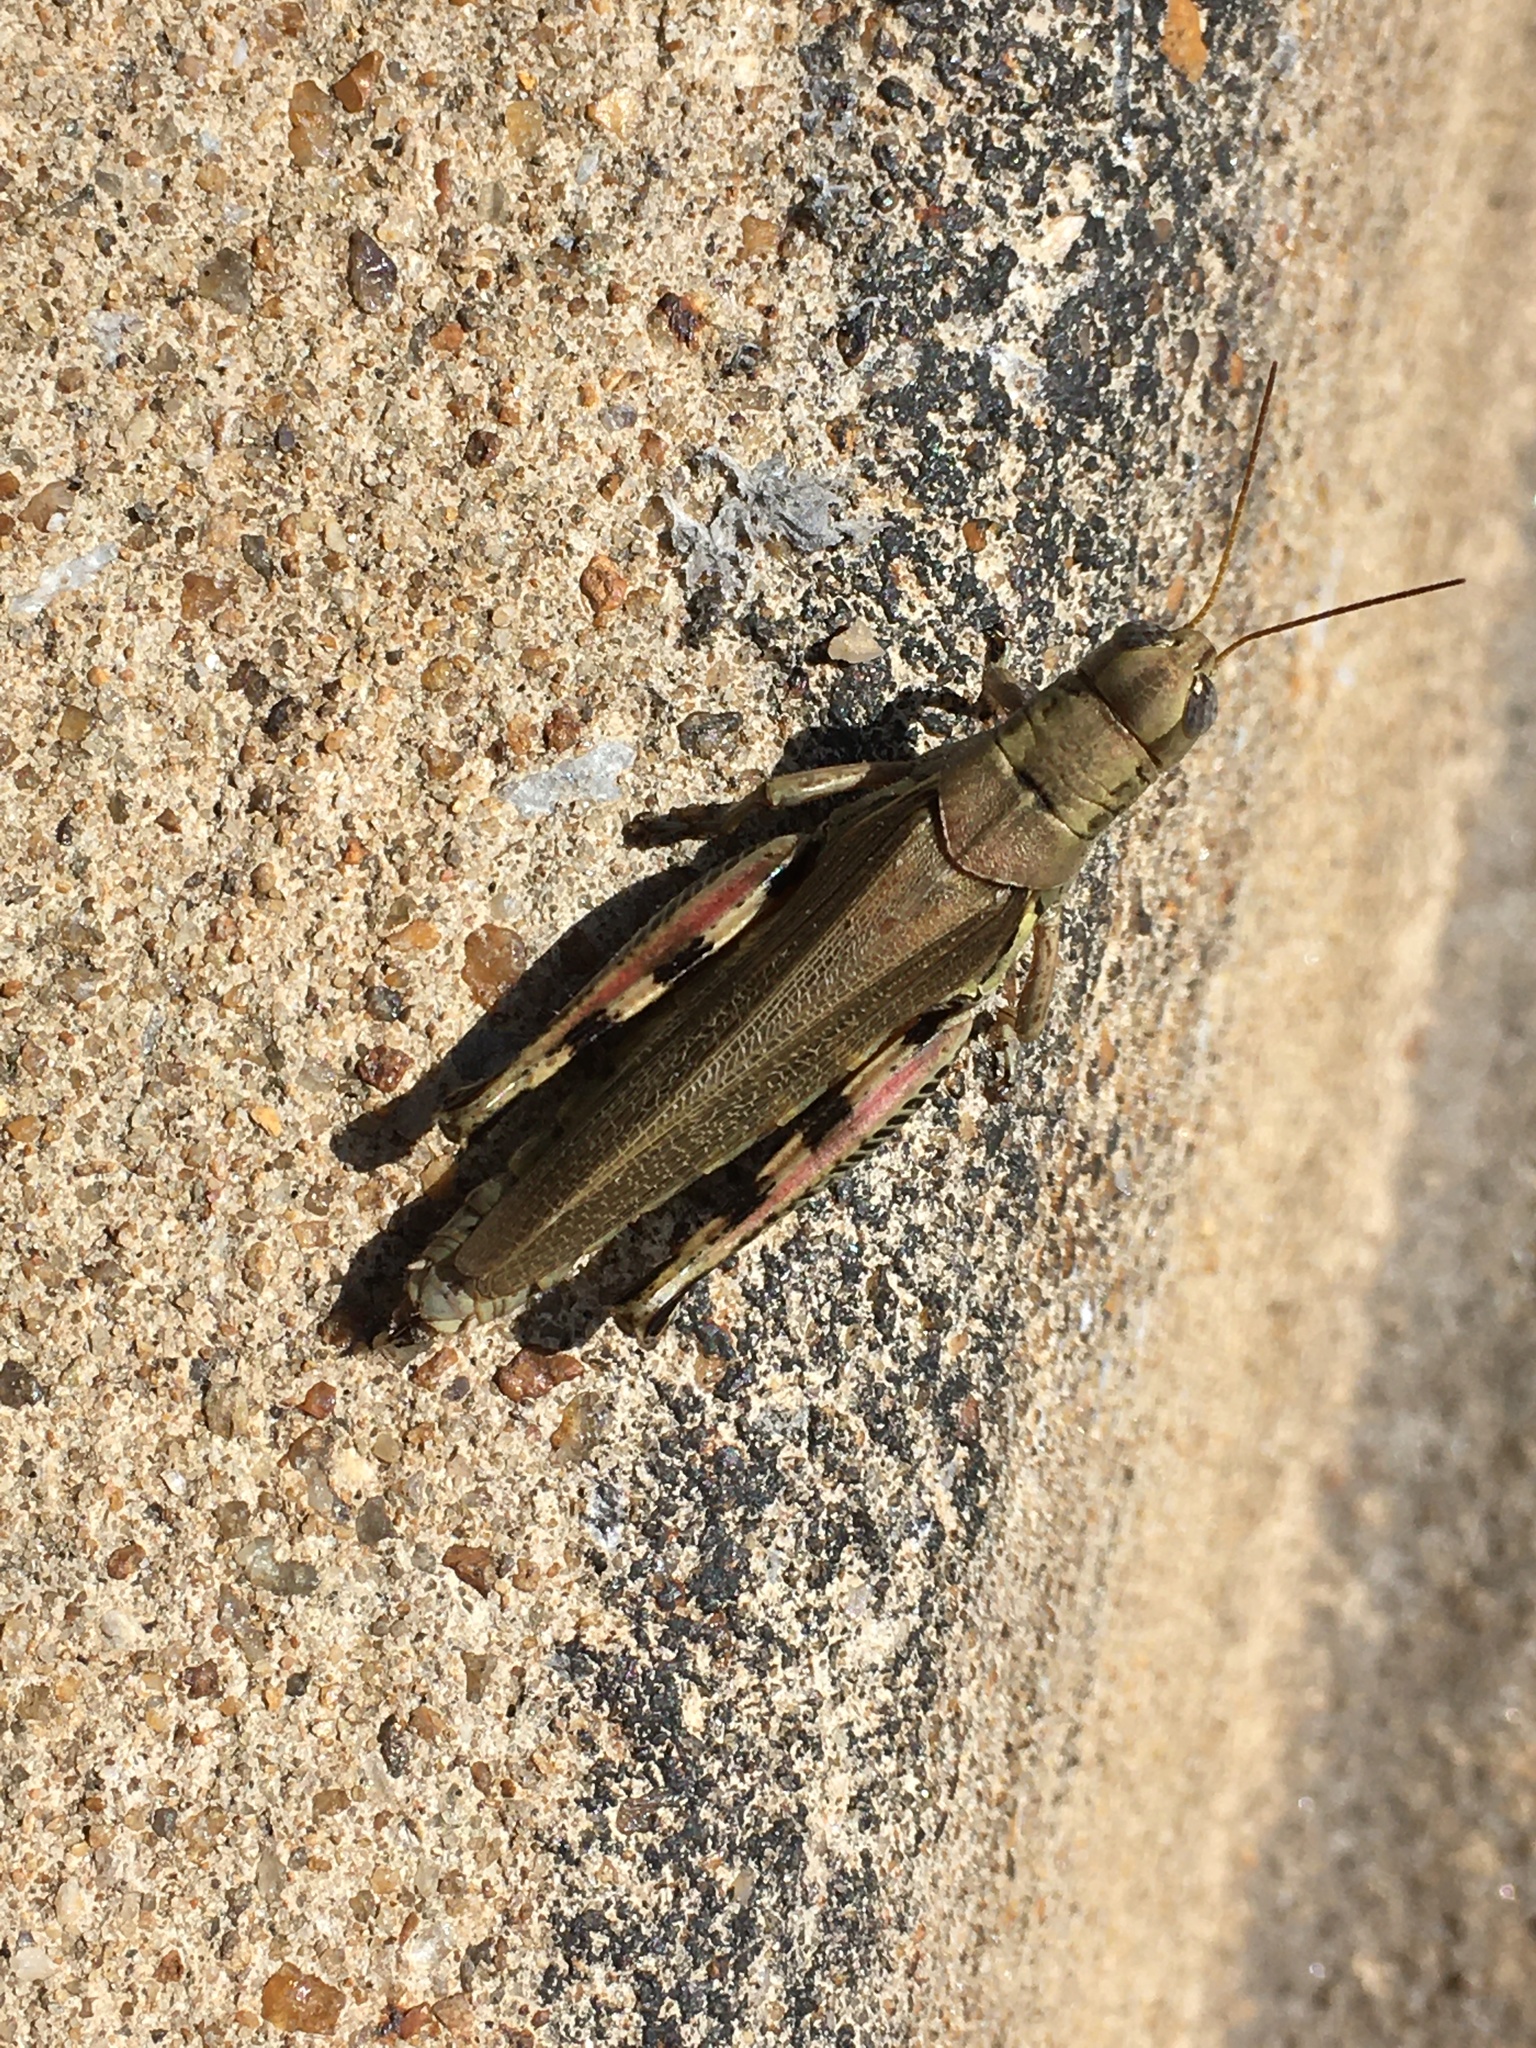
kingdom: Animalia
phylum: Arthropoda
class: Insecta
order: Orthoptera
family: Acrididae
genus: Melanoplus
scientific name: Melanoplus differentialis
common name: Differential grasshopper
